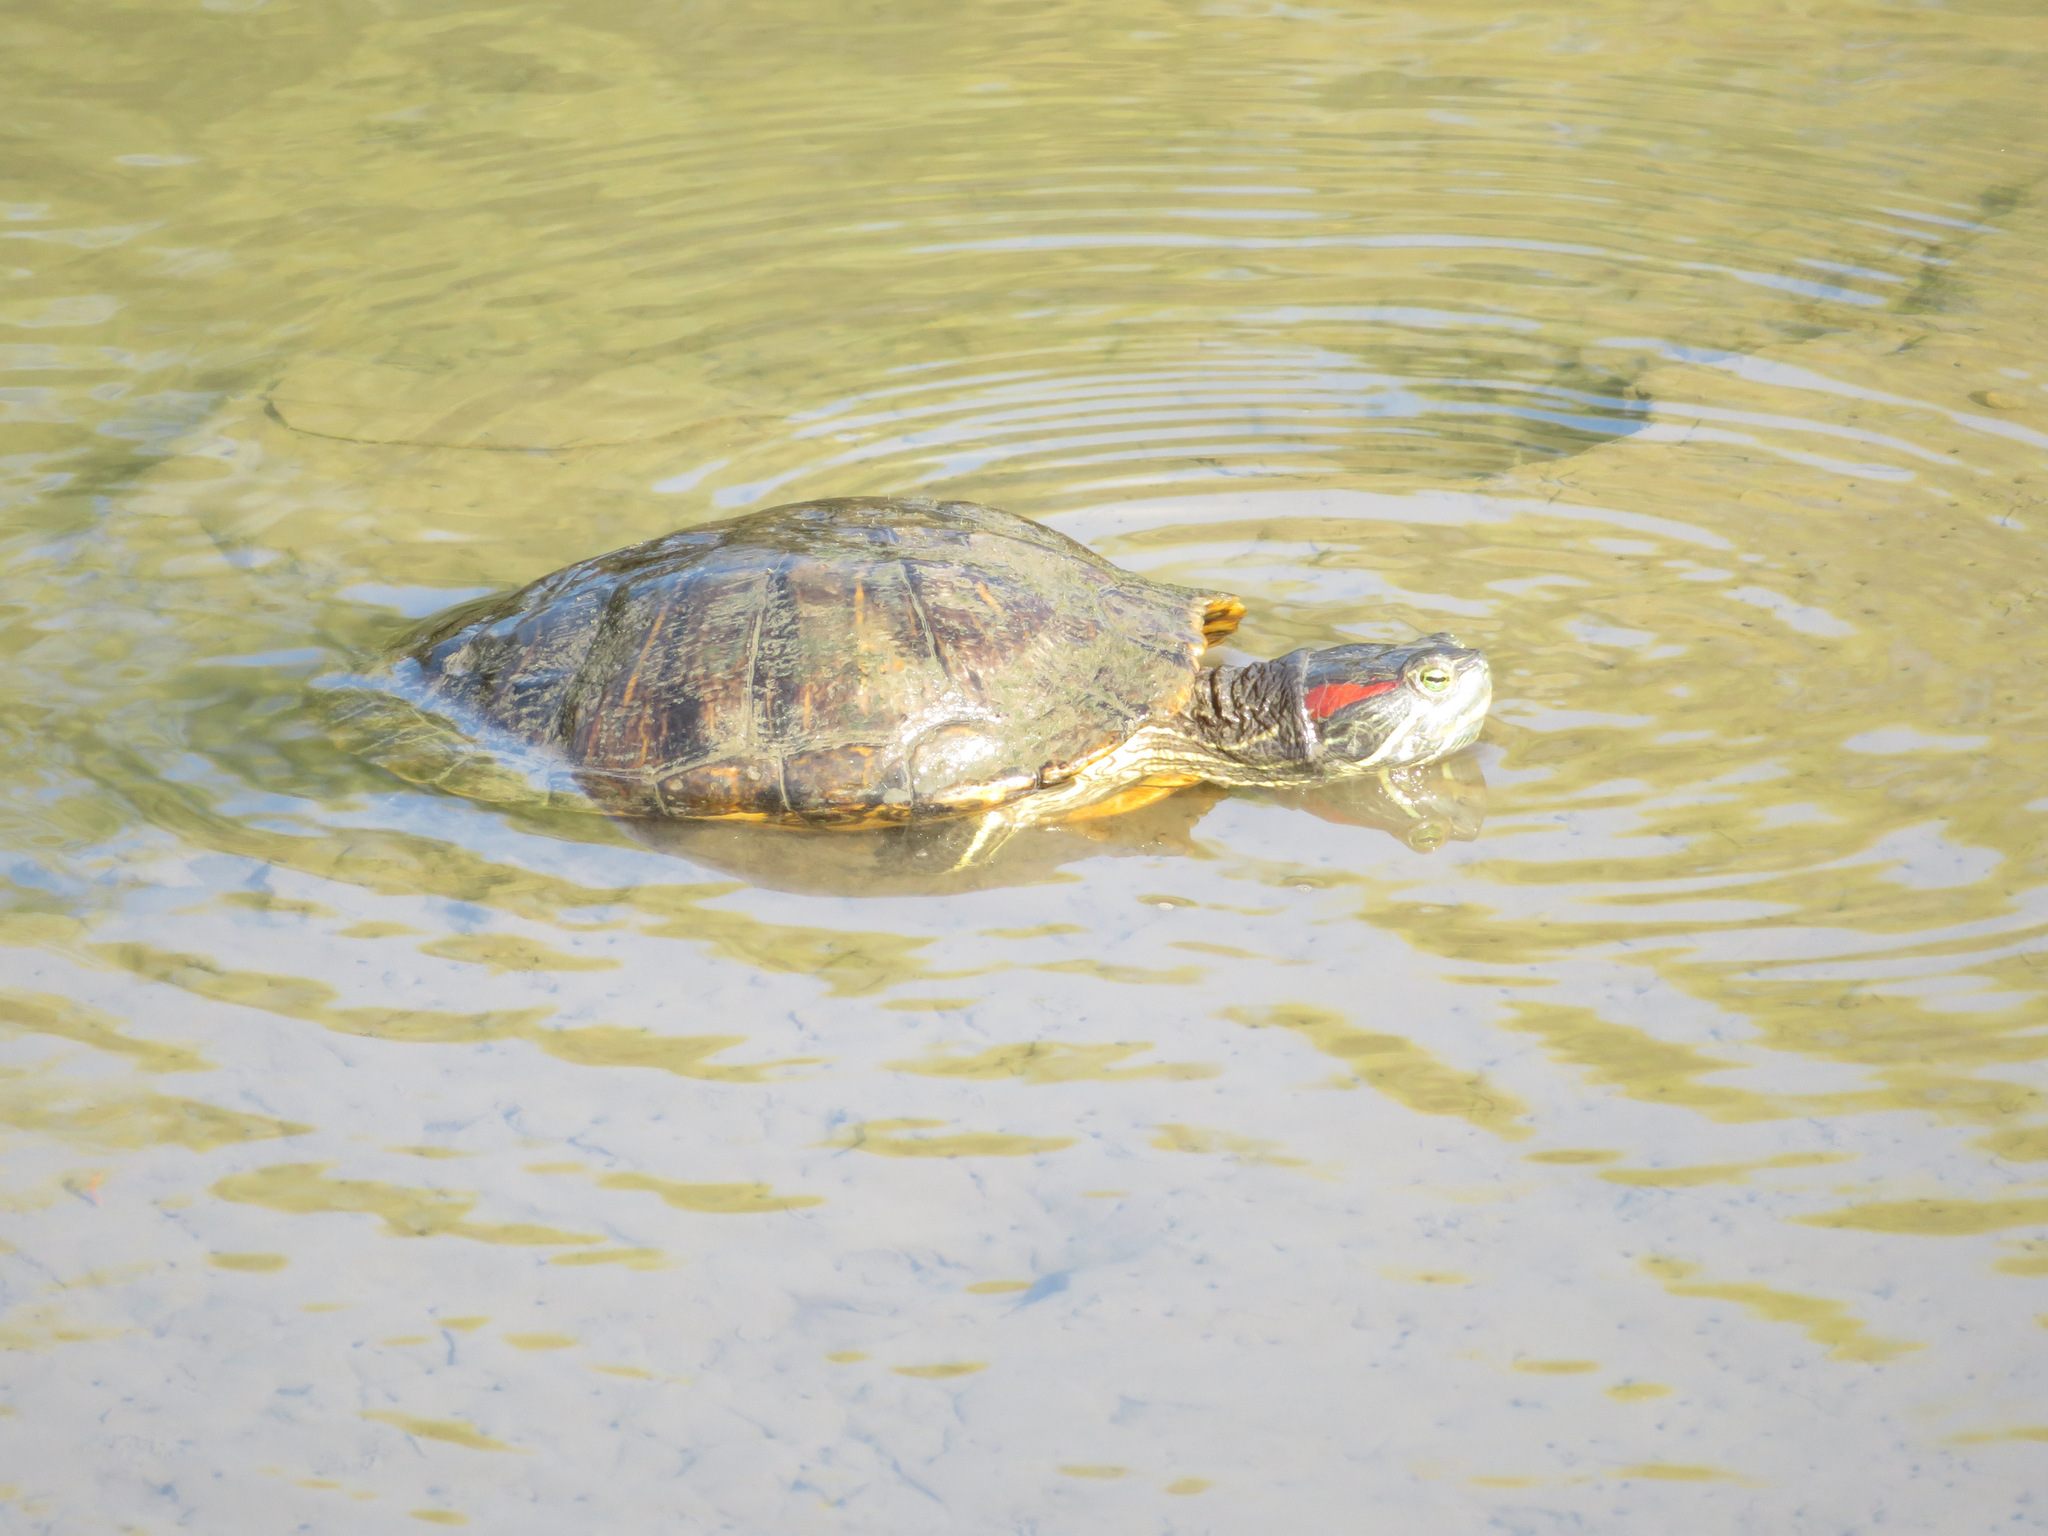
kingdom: Animalia
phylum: Chordata
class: Testudines
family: Emydidae
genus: Trachemys
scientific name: Trachemys scripta
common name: Slider
